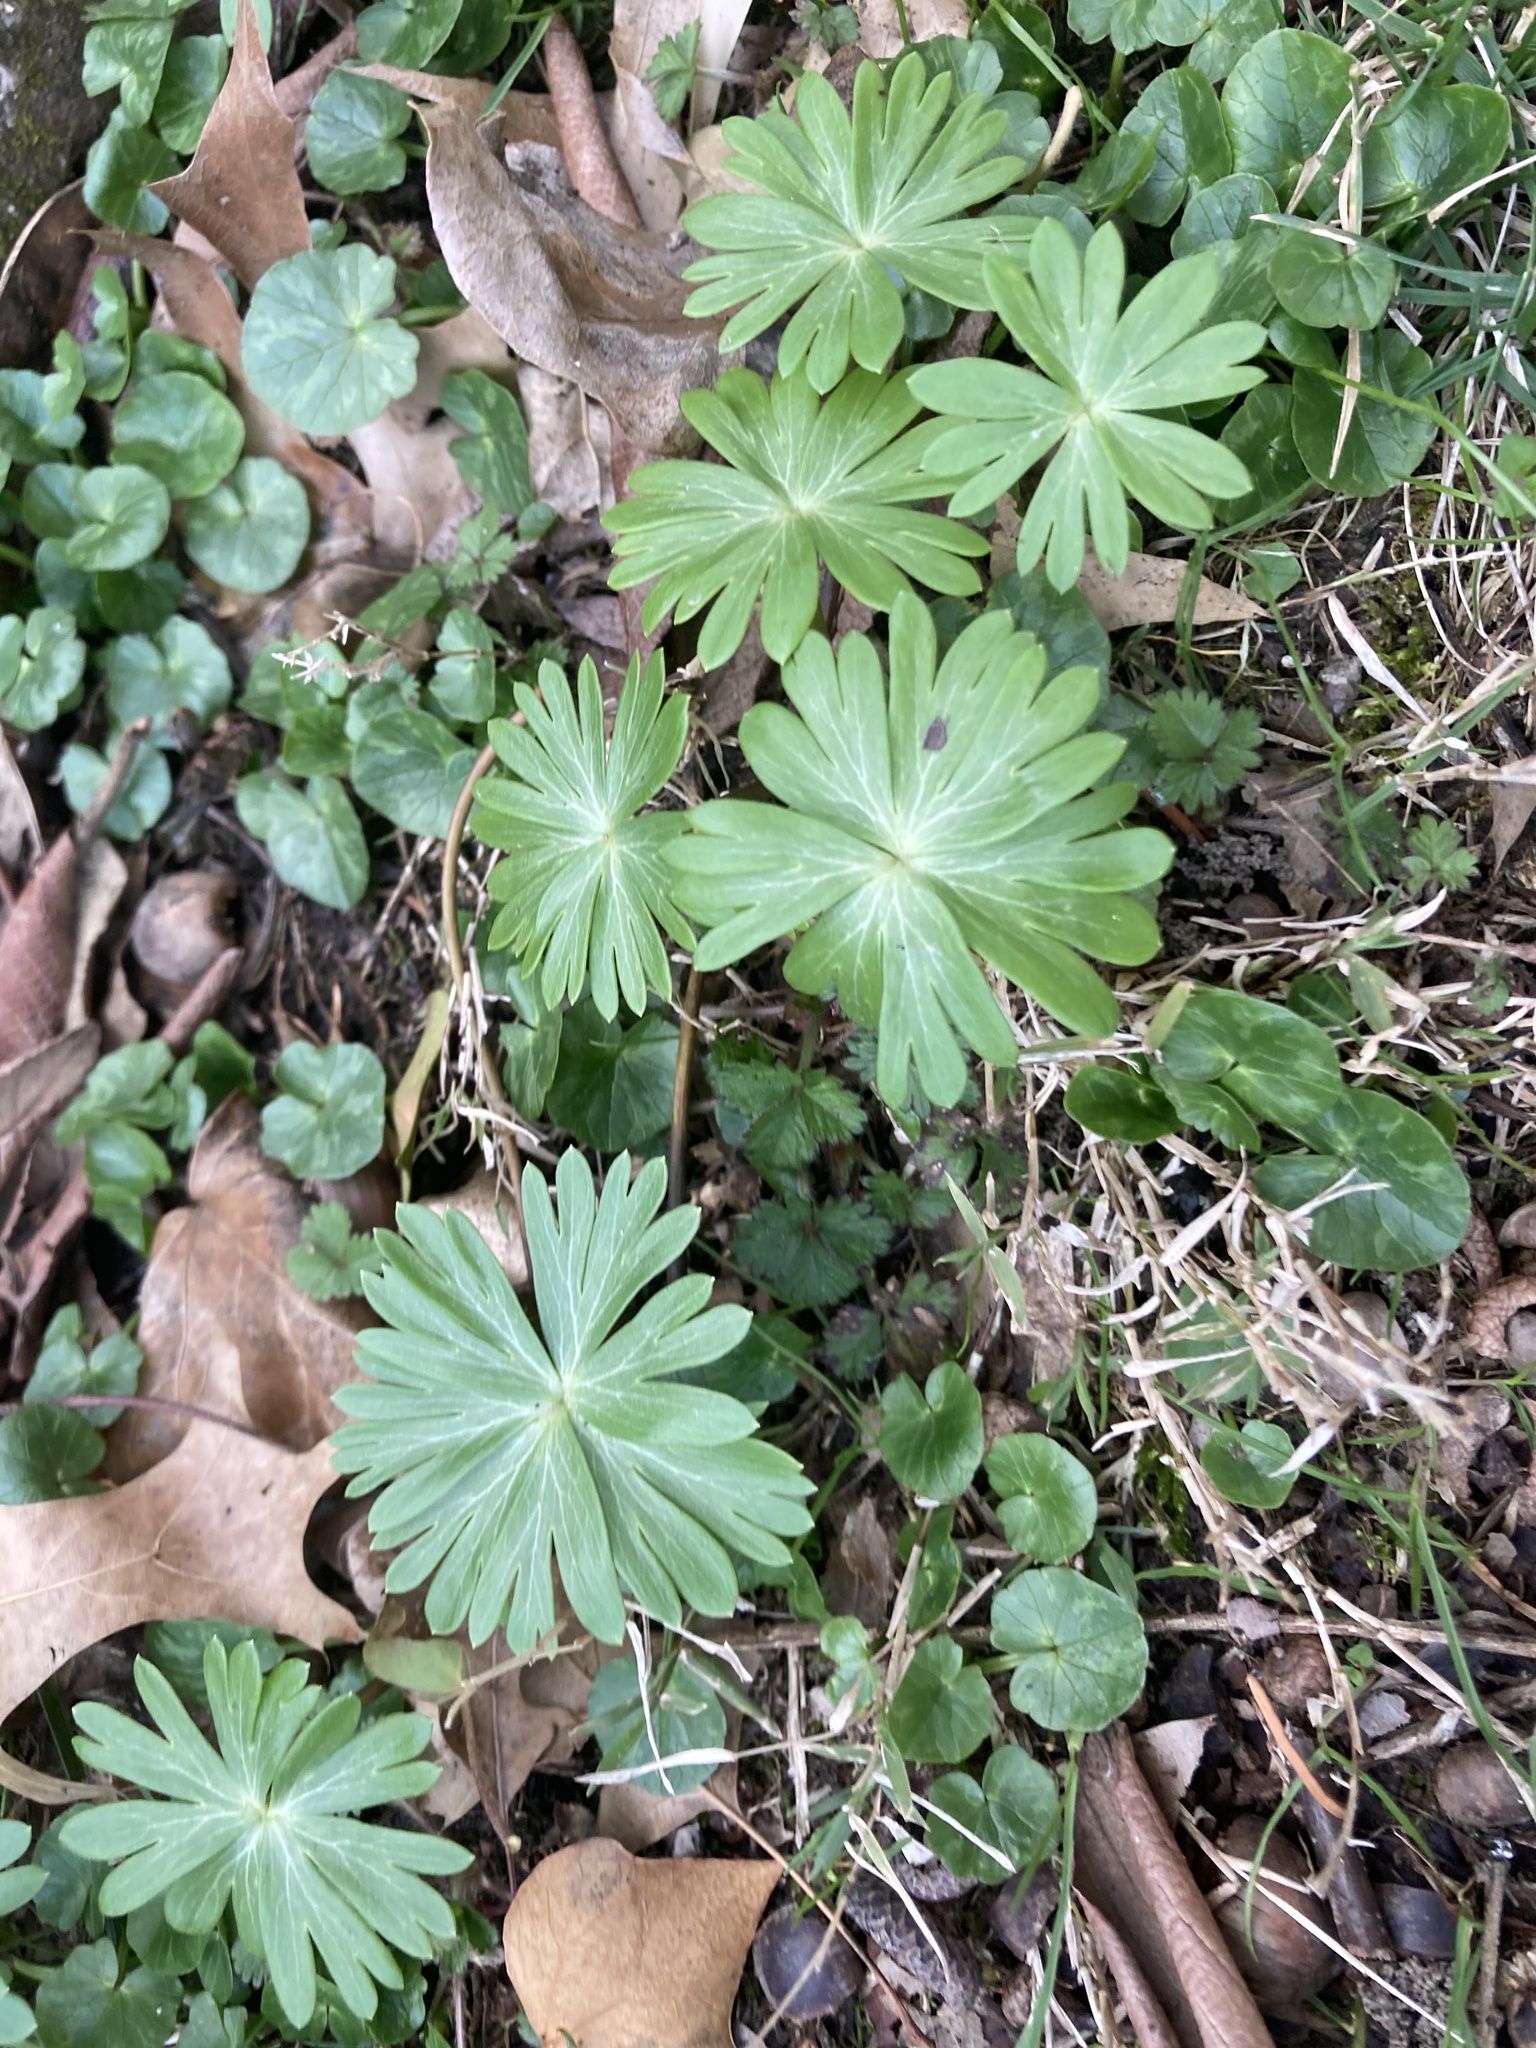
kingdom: Plantae
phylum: Tracheophyta
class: Magnoliopsida
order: Ranunculales
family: Ranunculaceae
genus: Eranthis
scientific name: Eranthis hyemalis
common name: Winter aconite
